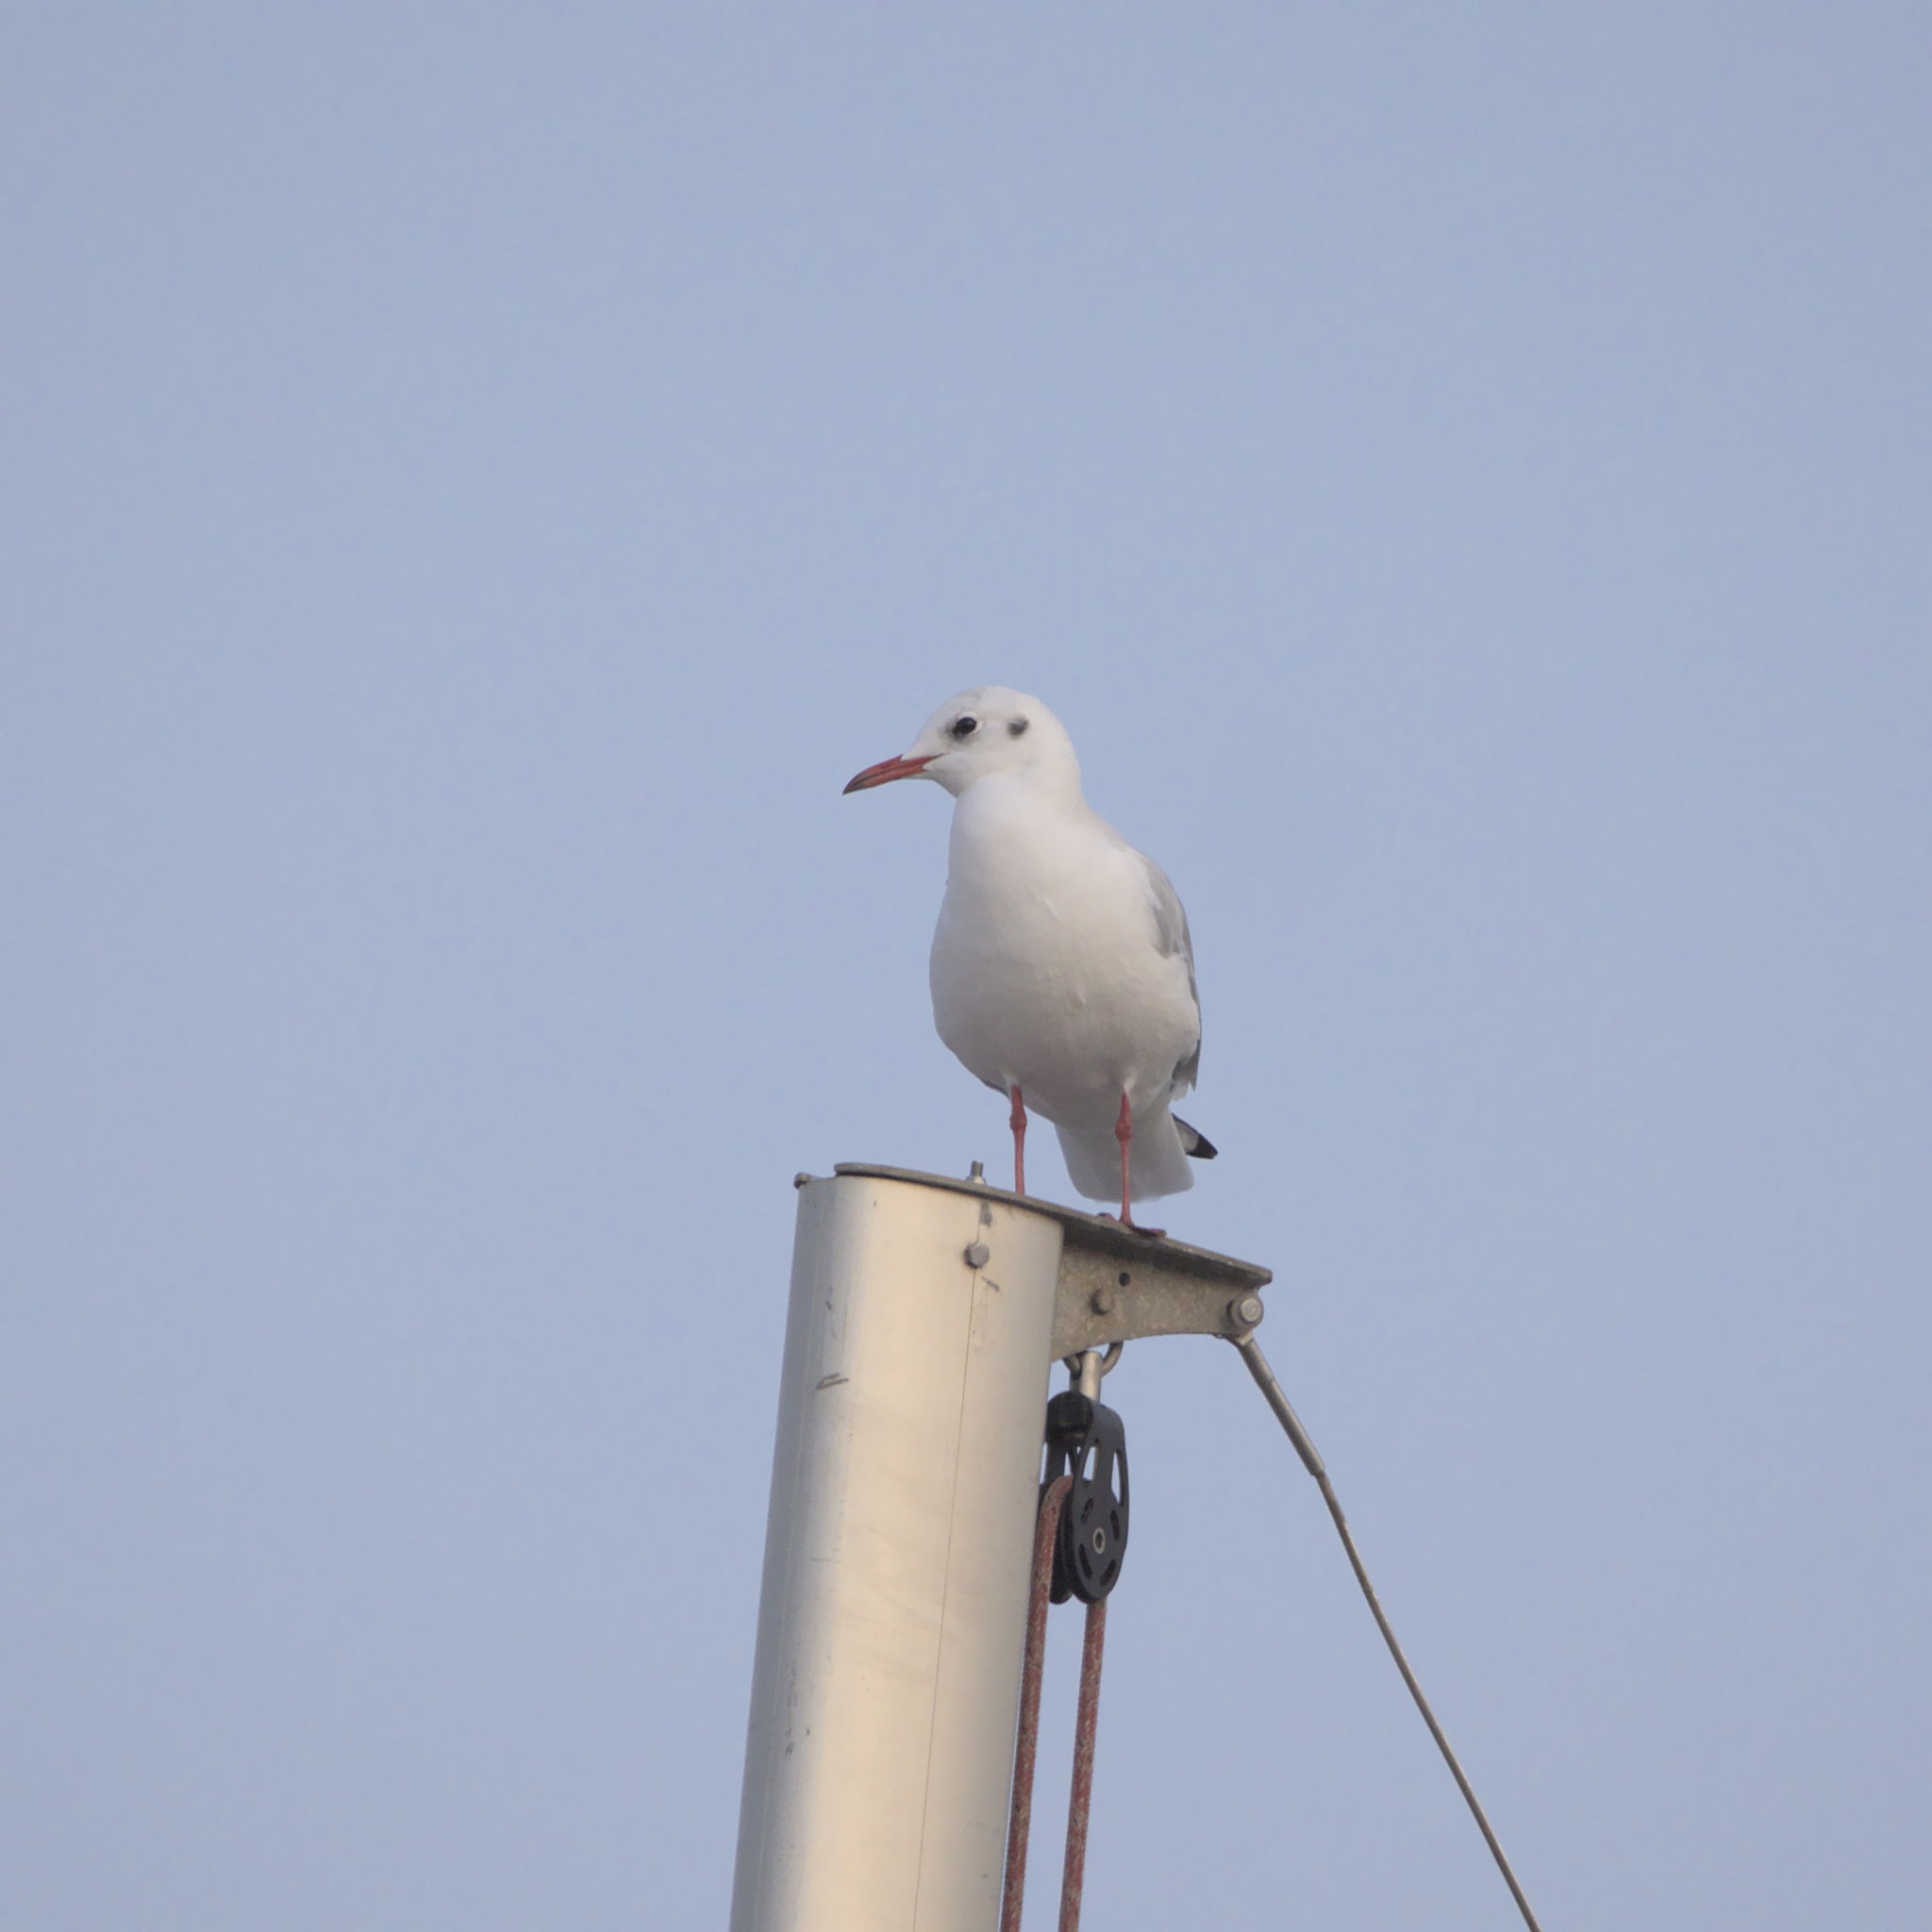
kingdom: Animalia
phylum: Chordata
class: Aves
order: Charadriiformes
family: Laridae
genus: Chroicocephalus
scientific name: Chroicocephalus ridibundus
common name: Black-headed gull
